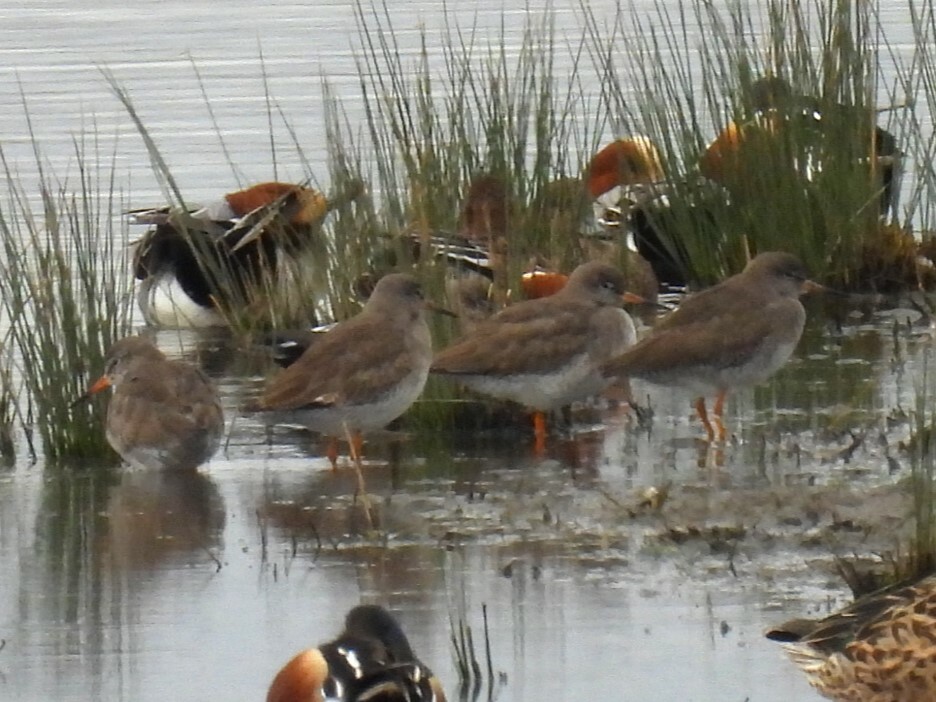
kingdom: Animalia
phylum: Chordata
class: Aves
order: Charadriiformes
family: Scolopacidae
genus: Tringa
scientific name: Tringa totanus
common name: Common redshank
